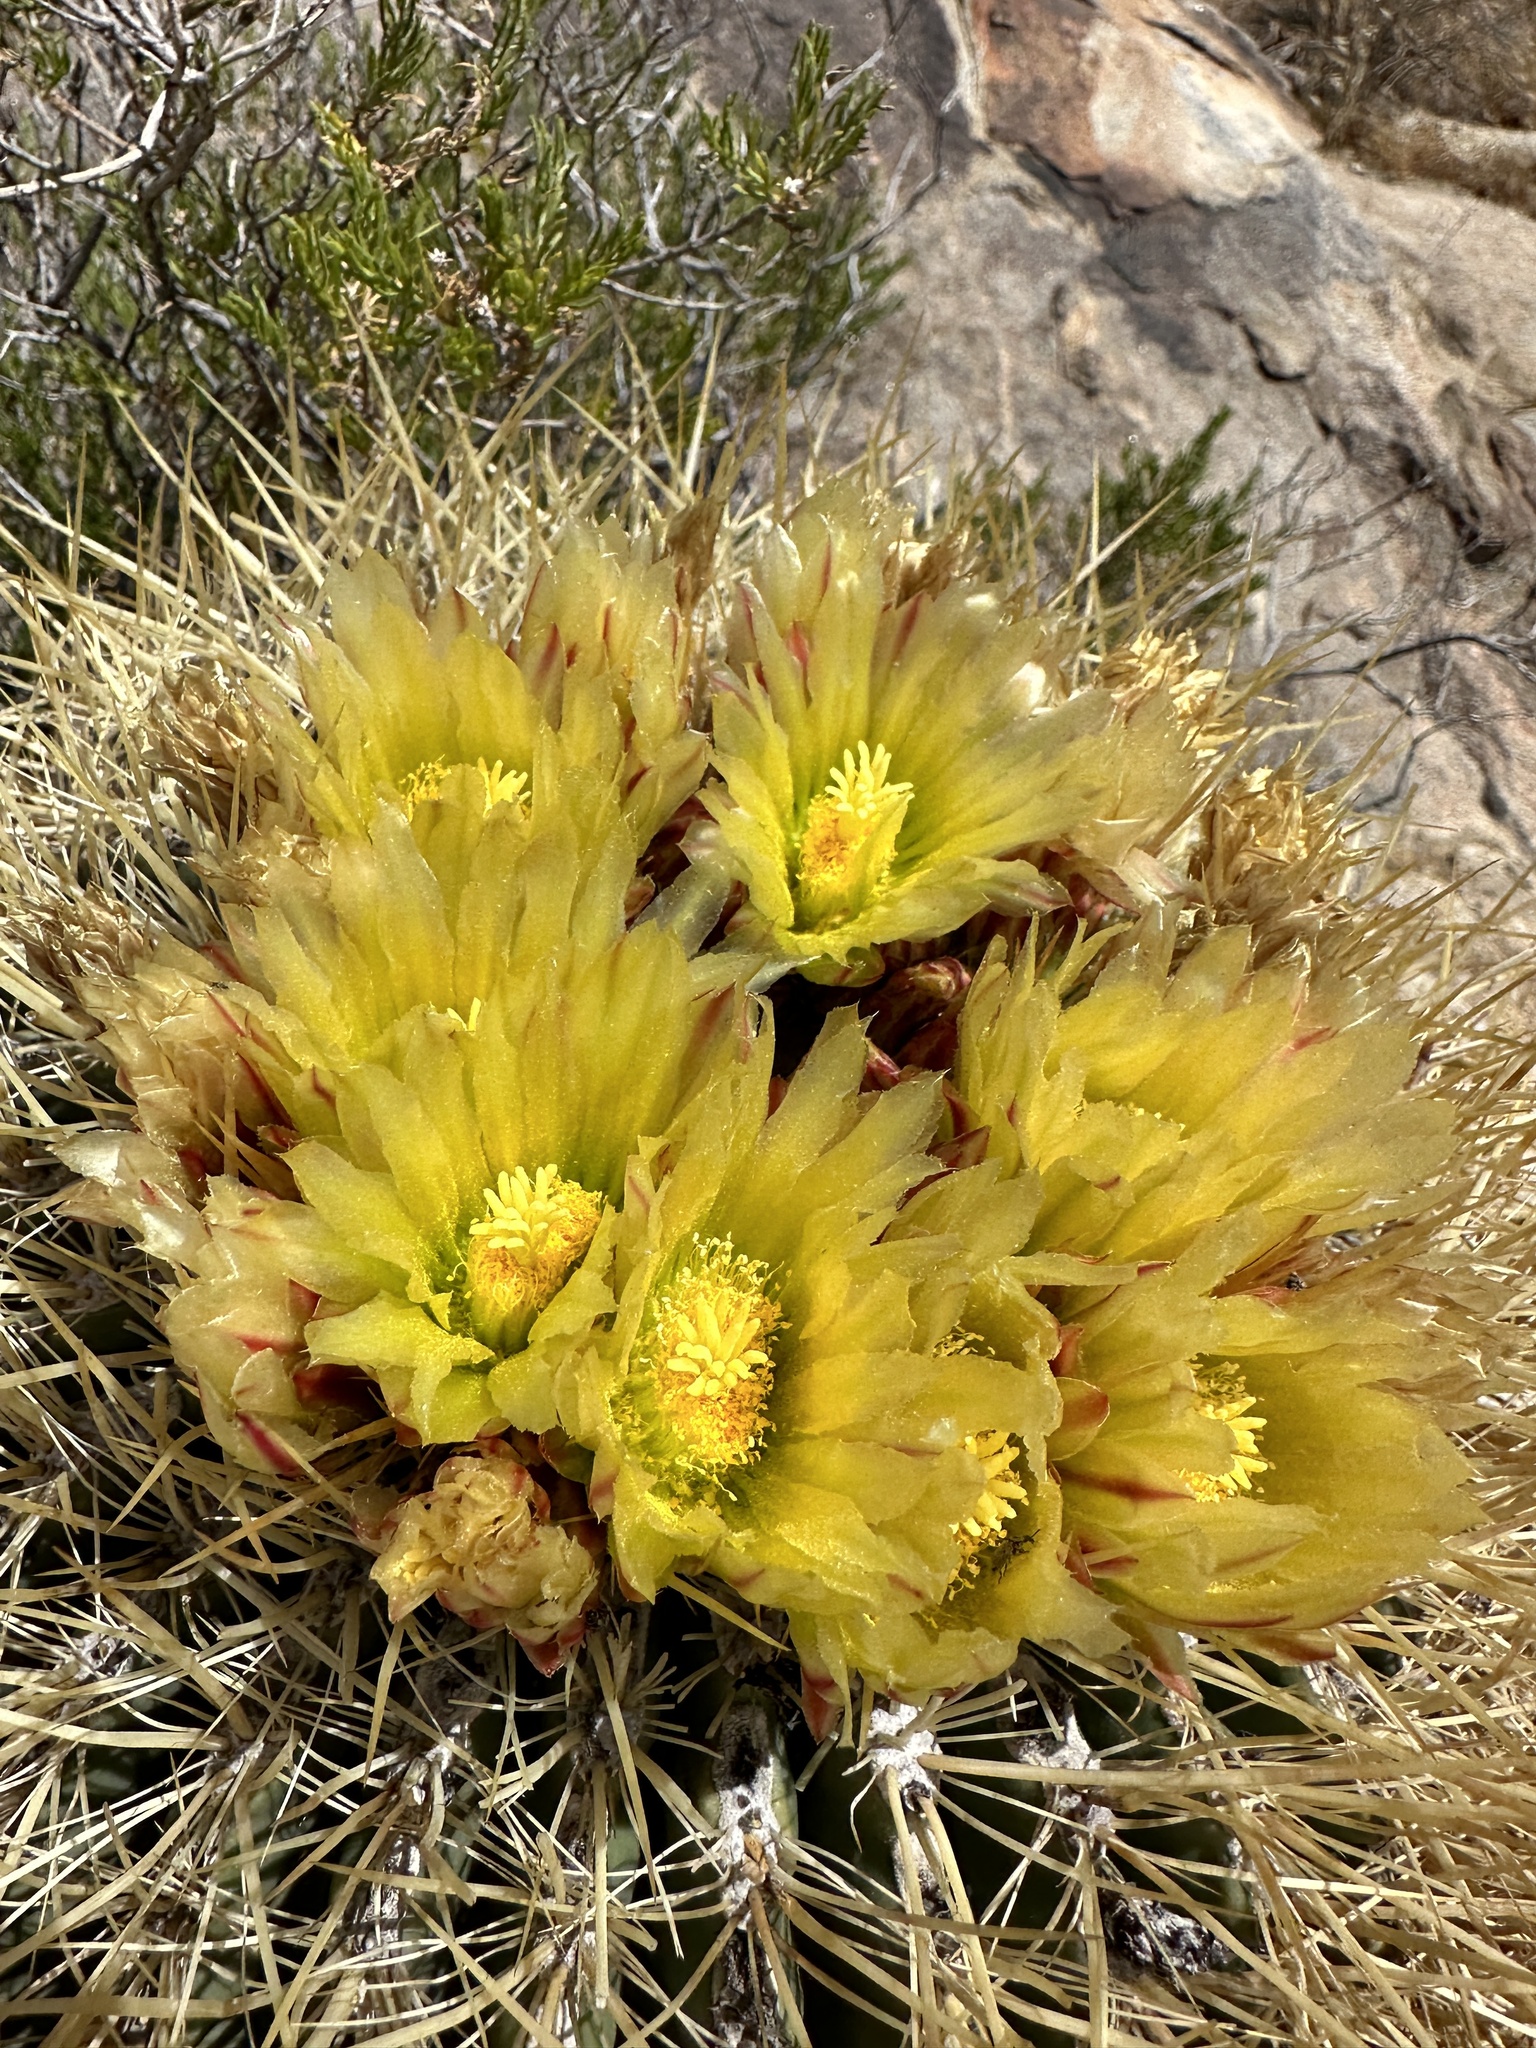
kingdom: Plantae
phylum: Tracheophyta
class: Magnoliopsida
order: Caryophyllales
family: Cactaceae
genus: Ferocactus
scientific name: Ferocactus cylindraceus
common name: California barrel cactus
